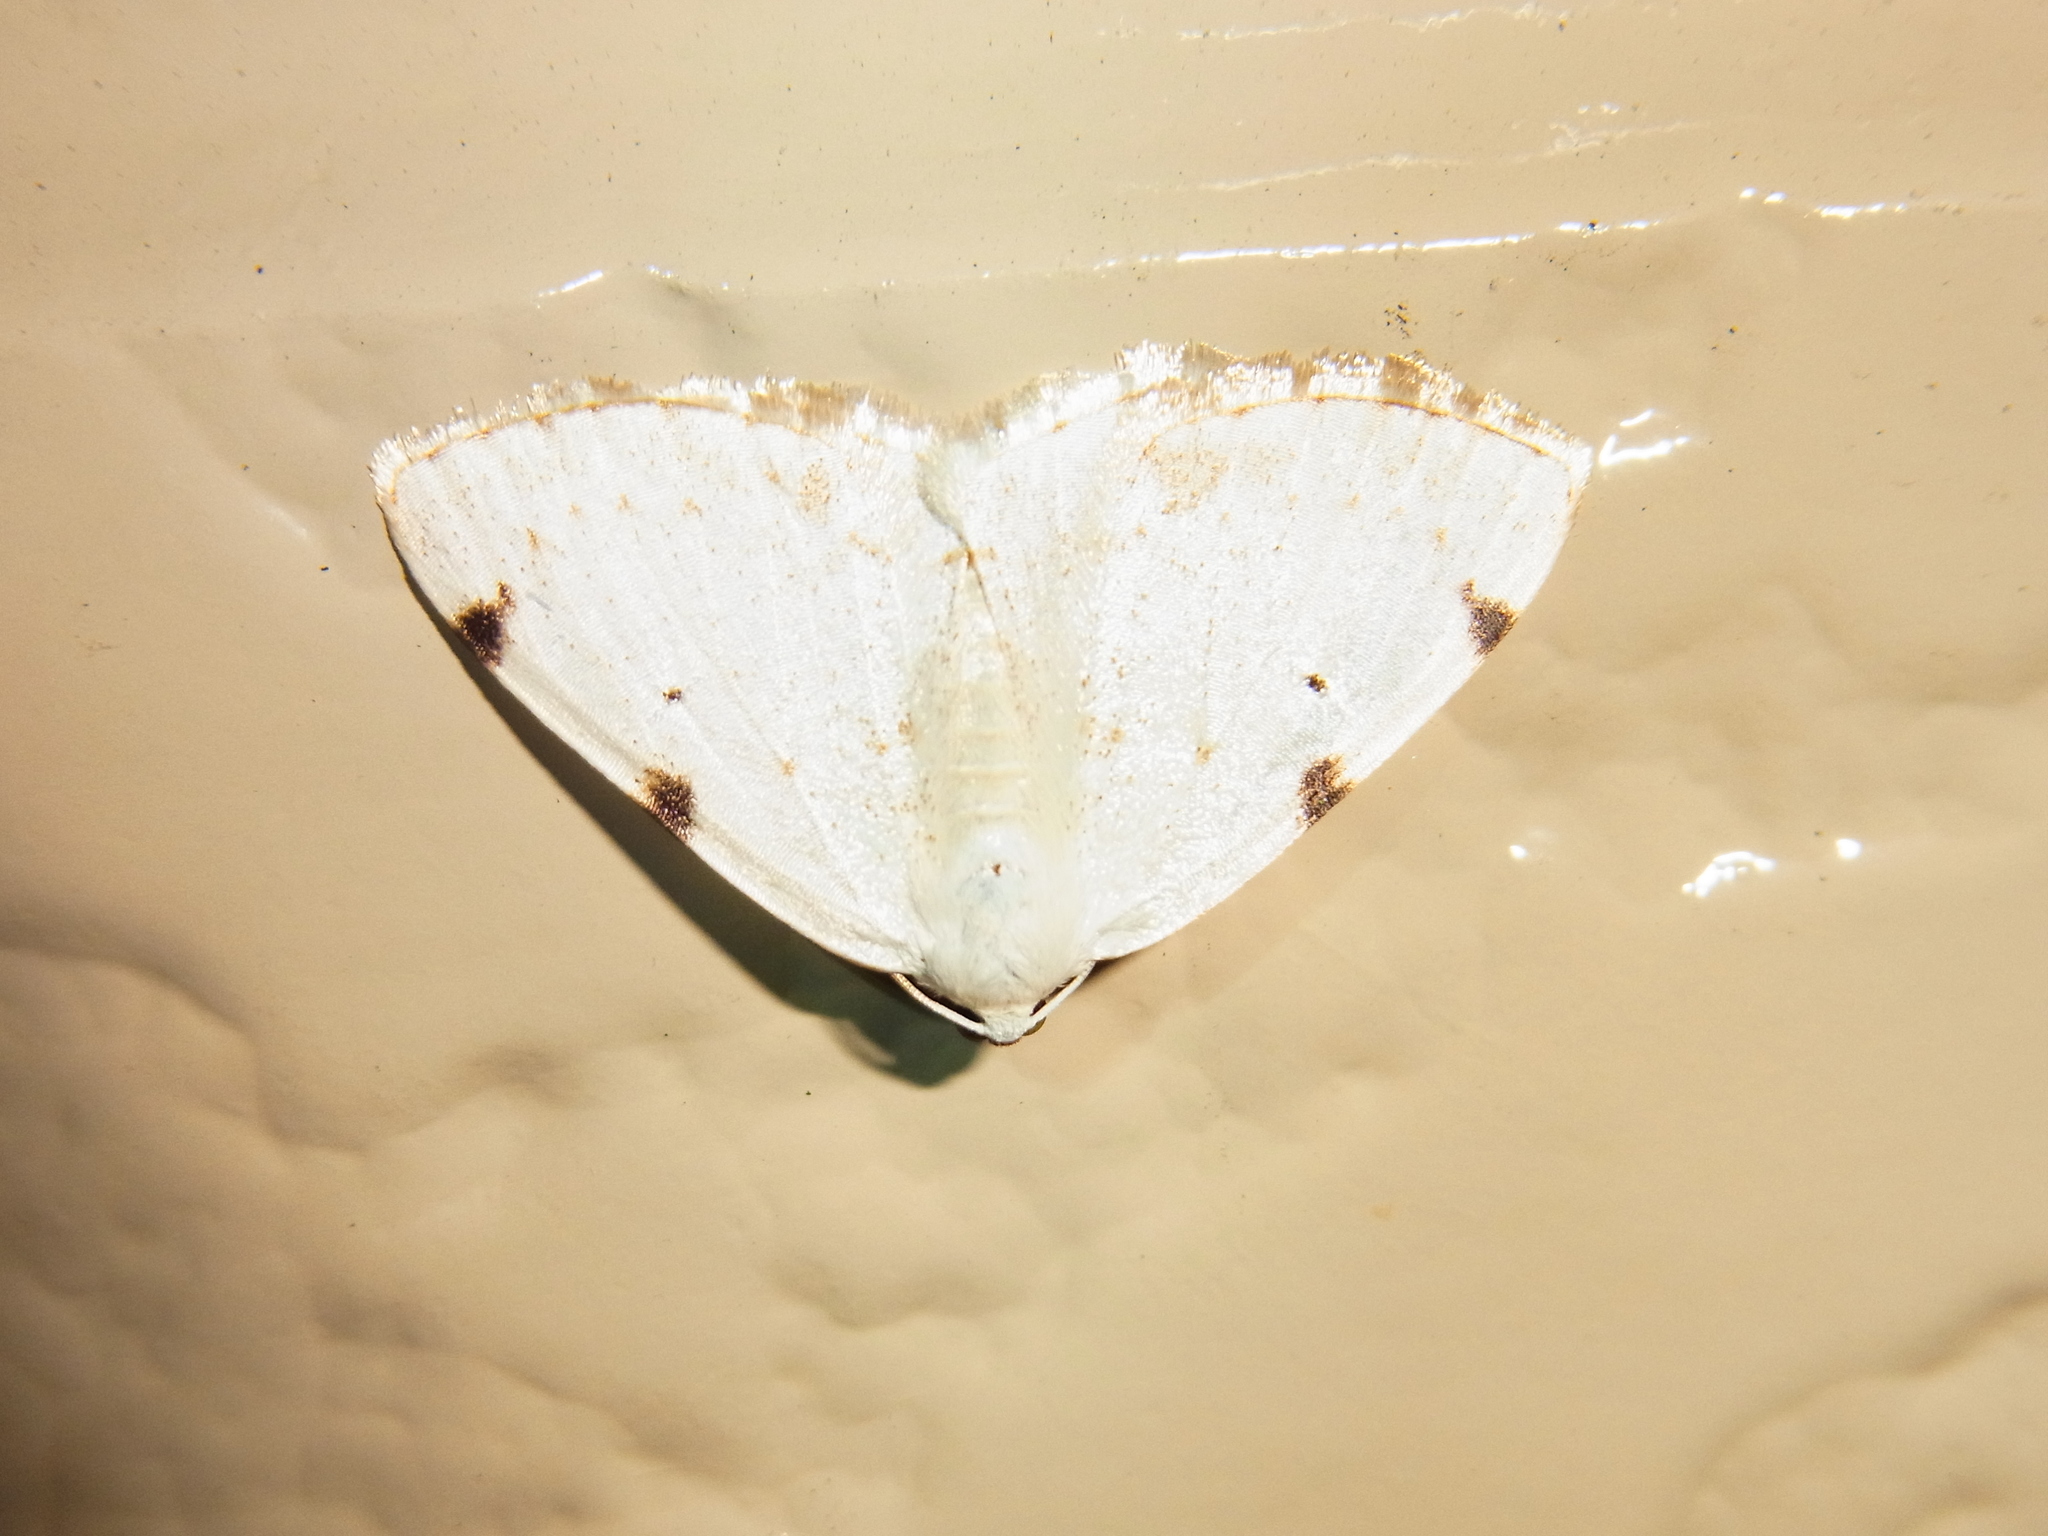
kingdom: Animalia
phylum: Arthropoda
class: Insecta
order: Lepidoptera
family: Geometridae
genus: Lomographa
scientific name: Lomographa bimaculata
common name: White-pinion spotted
